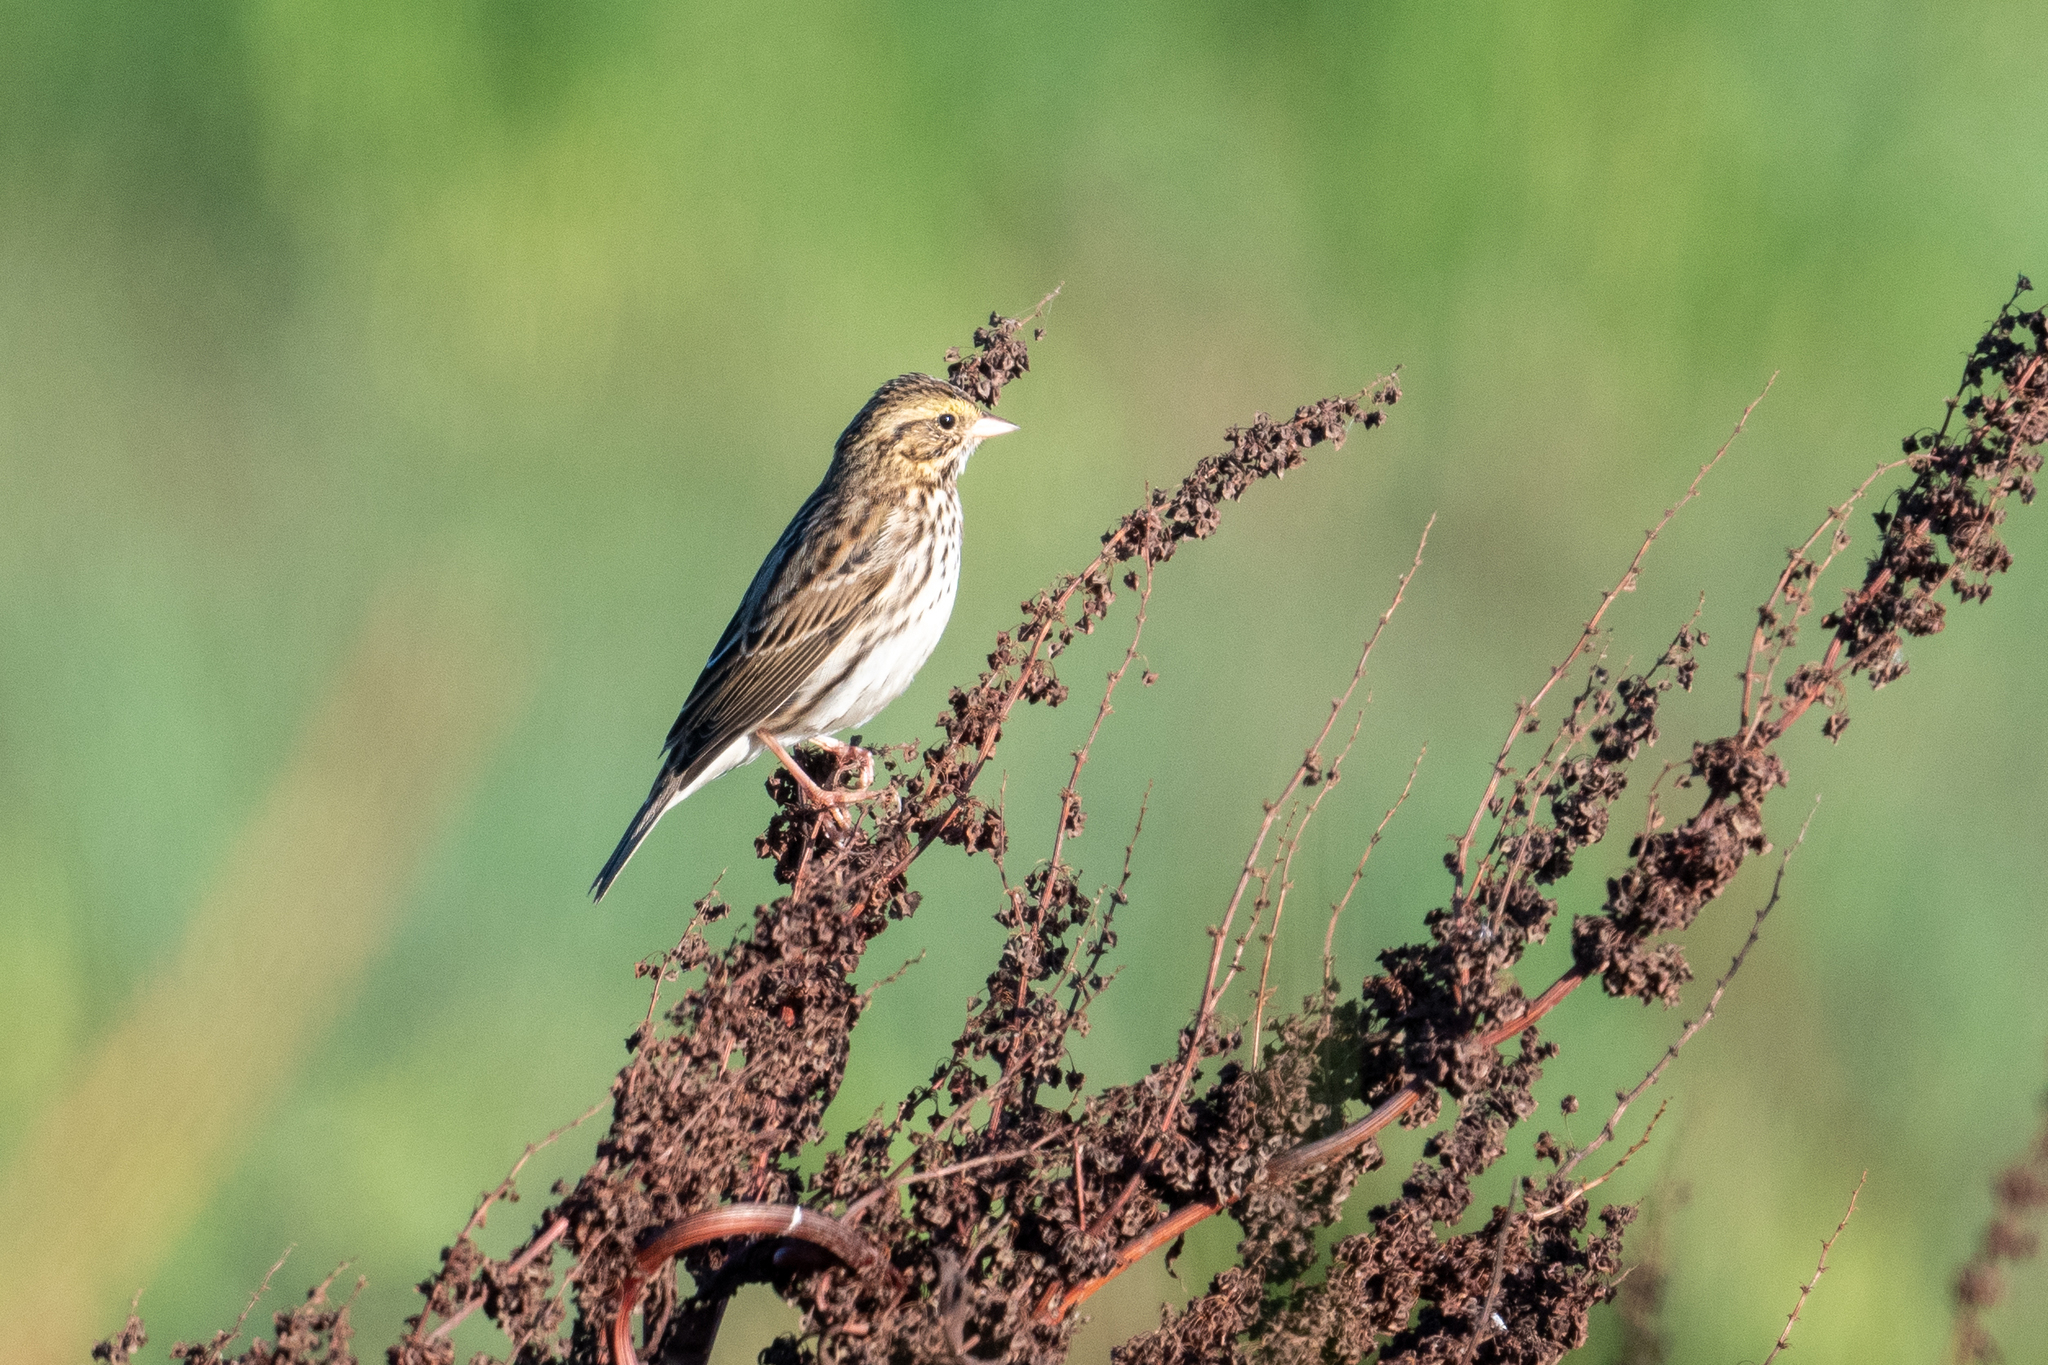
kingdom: Animalia
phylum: Chordata
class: Aves
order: Passeriformes
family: Passerellidae
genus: Passerculus
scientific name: Passerculus sandwichensis
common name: Savannah sparrow
